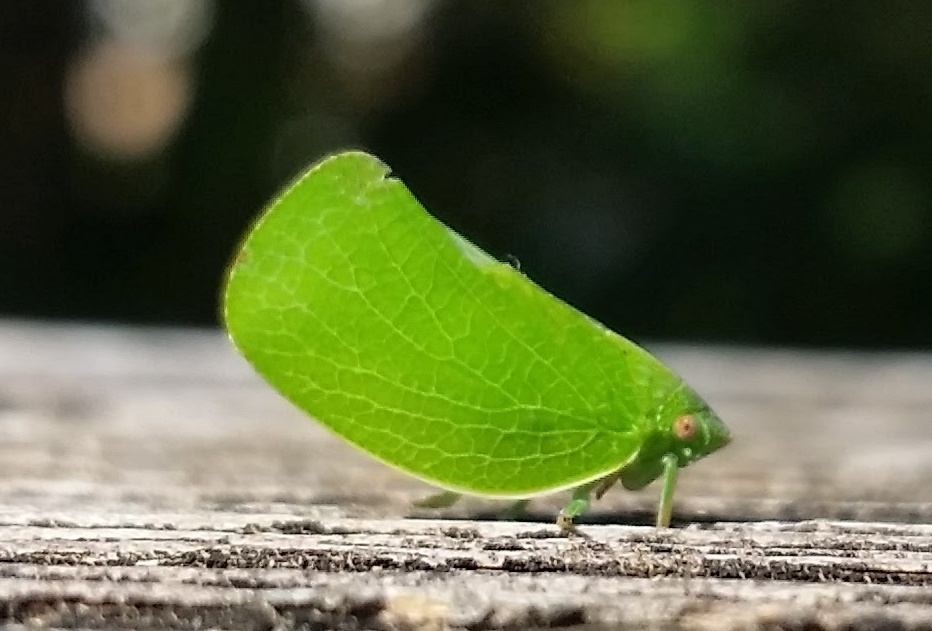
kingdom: Animalia
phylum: Arthropoda
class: Insecta
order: Hemiptera
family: Acanaloniidae
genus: Acanalonia
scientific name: Acanalonia conica
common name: Green cone-headed planthopper
